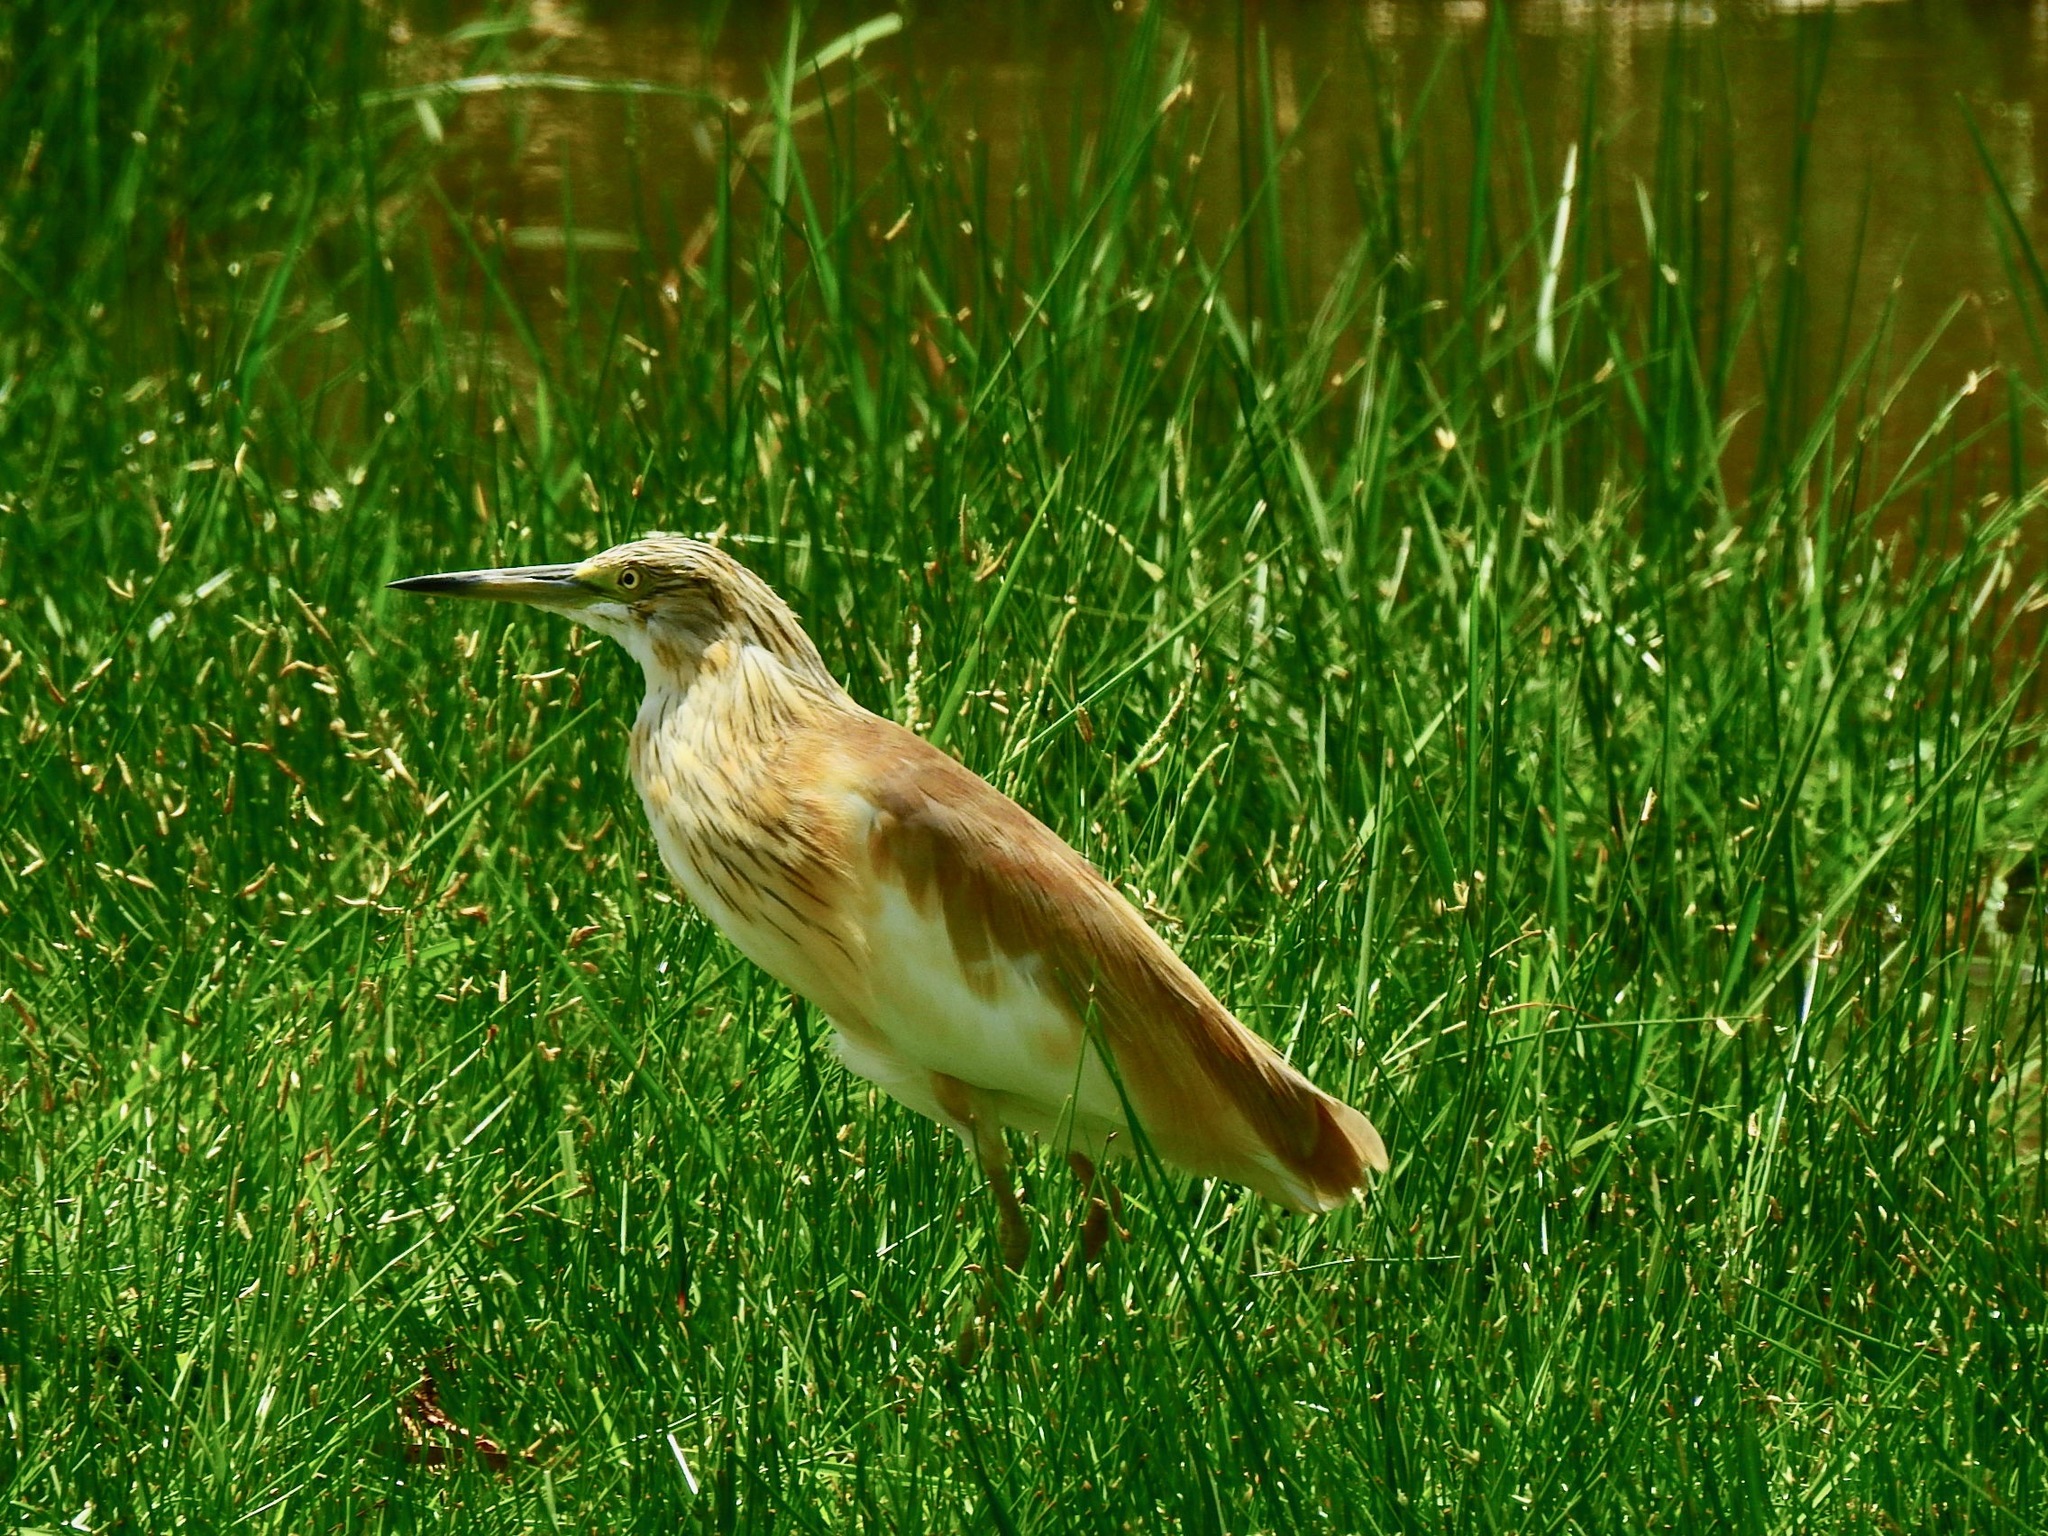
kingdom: Animalia
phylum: Chordata
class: Aves
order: Pelecaniformes
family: Ardeidae
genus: Ardeola
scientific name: Ardeola ralloides
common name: Squacco heron
